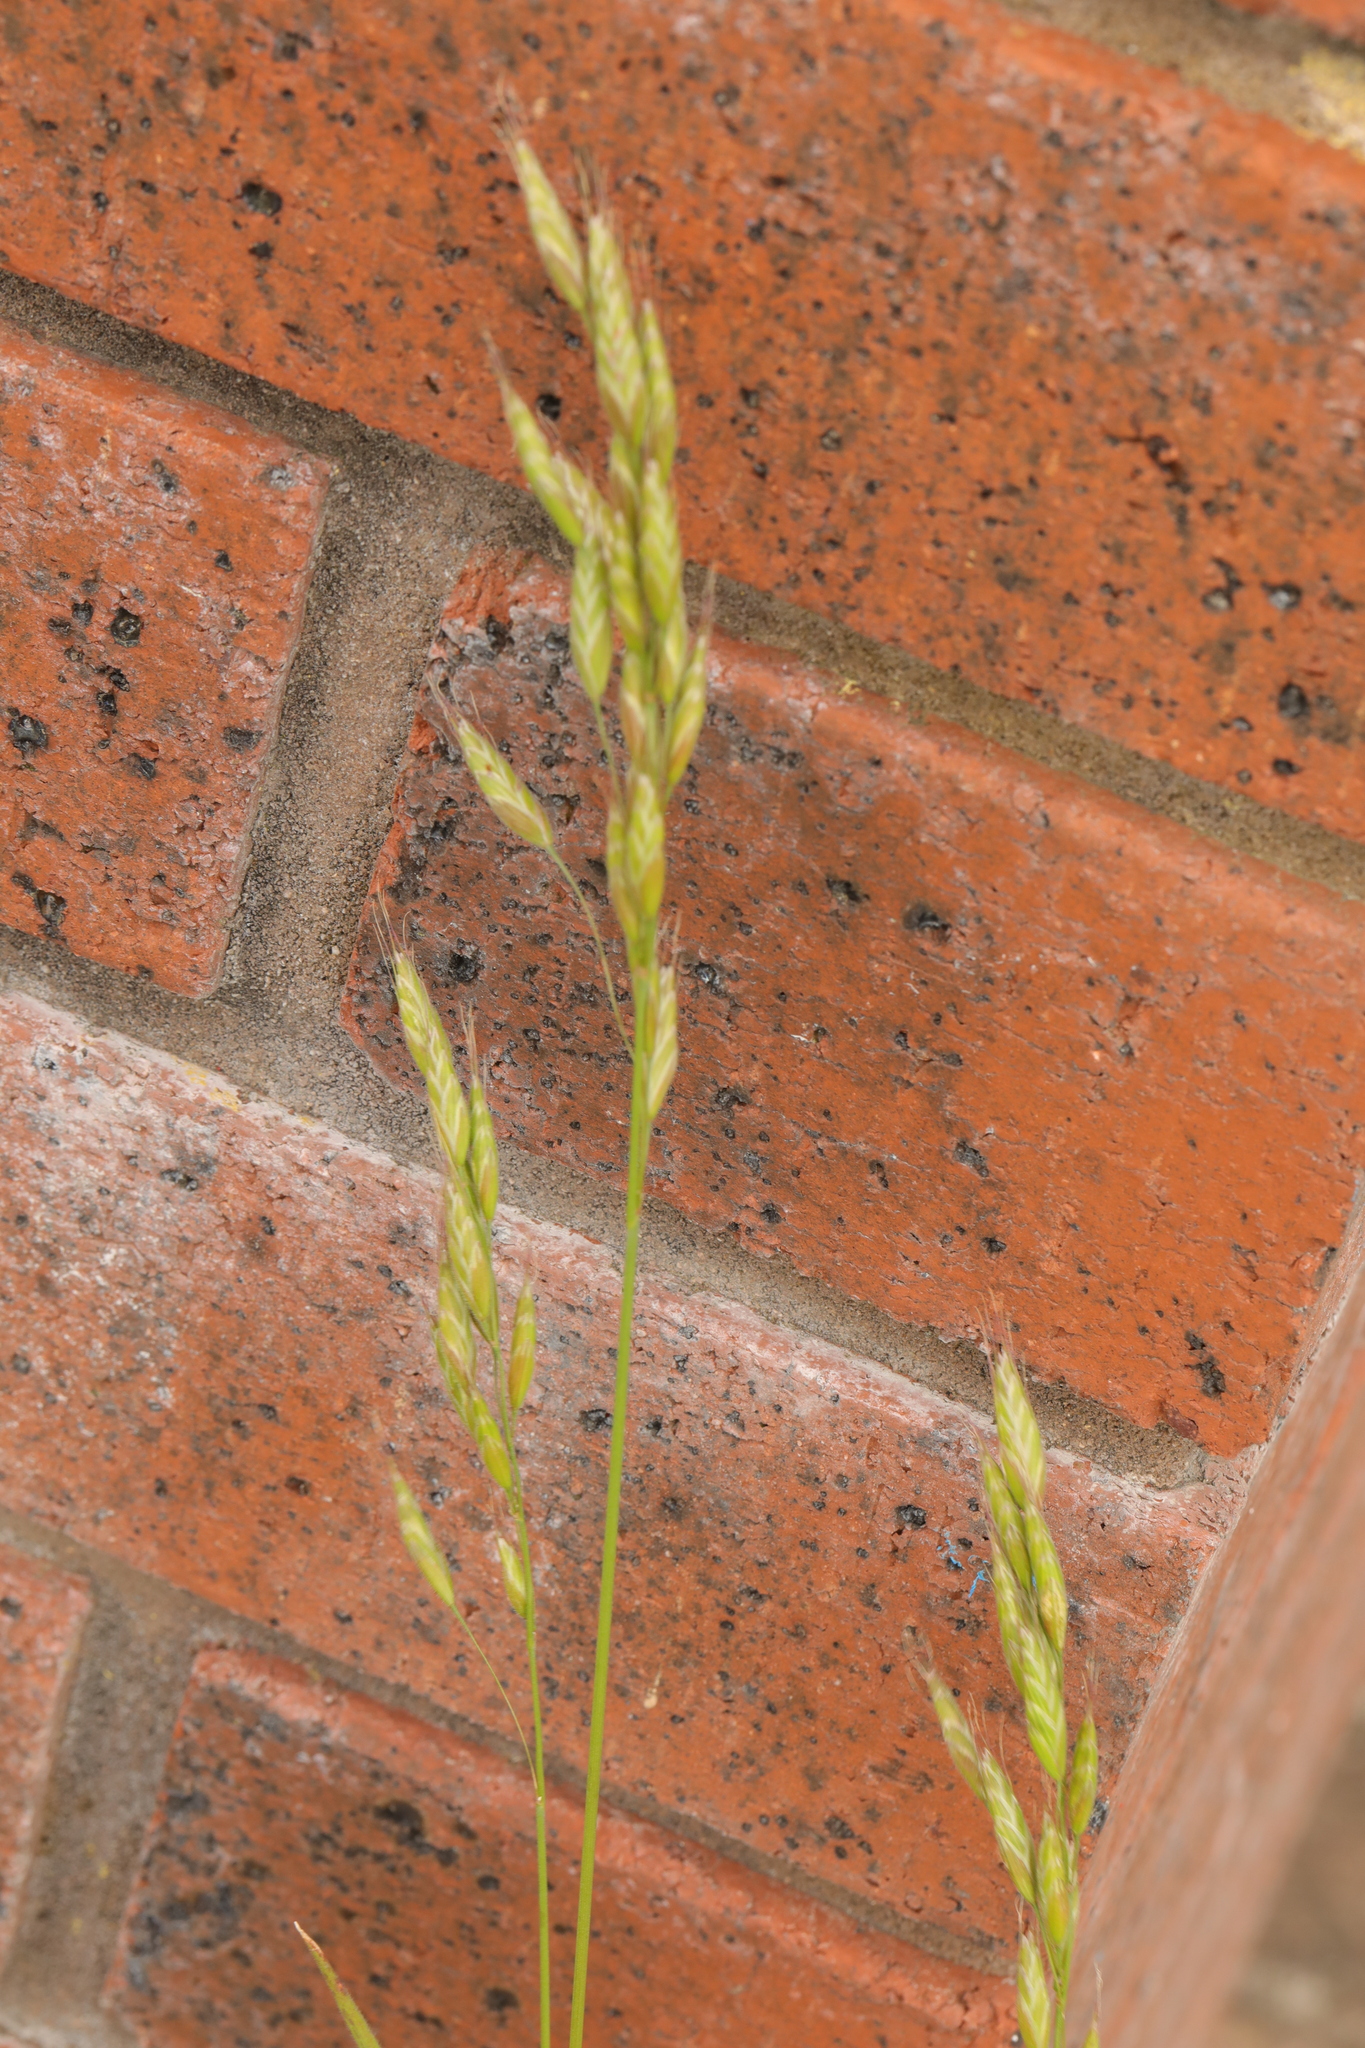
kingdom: Plantae
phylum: Tracheophyta
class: Liliopsida
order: Poales
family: Poaceae
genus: Bromus
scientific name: Bromus hordeaceus
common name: Soft brome
